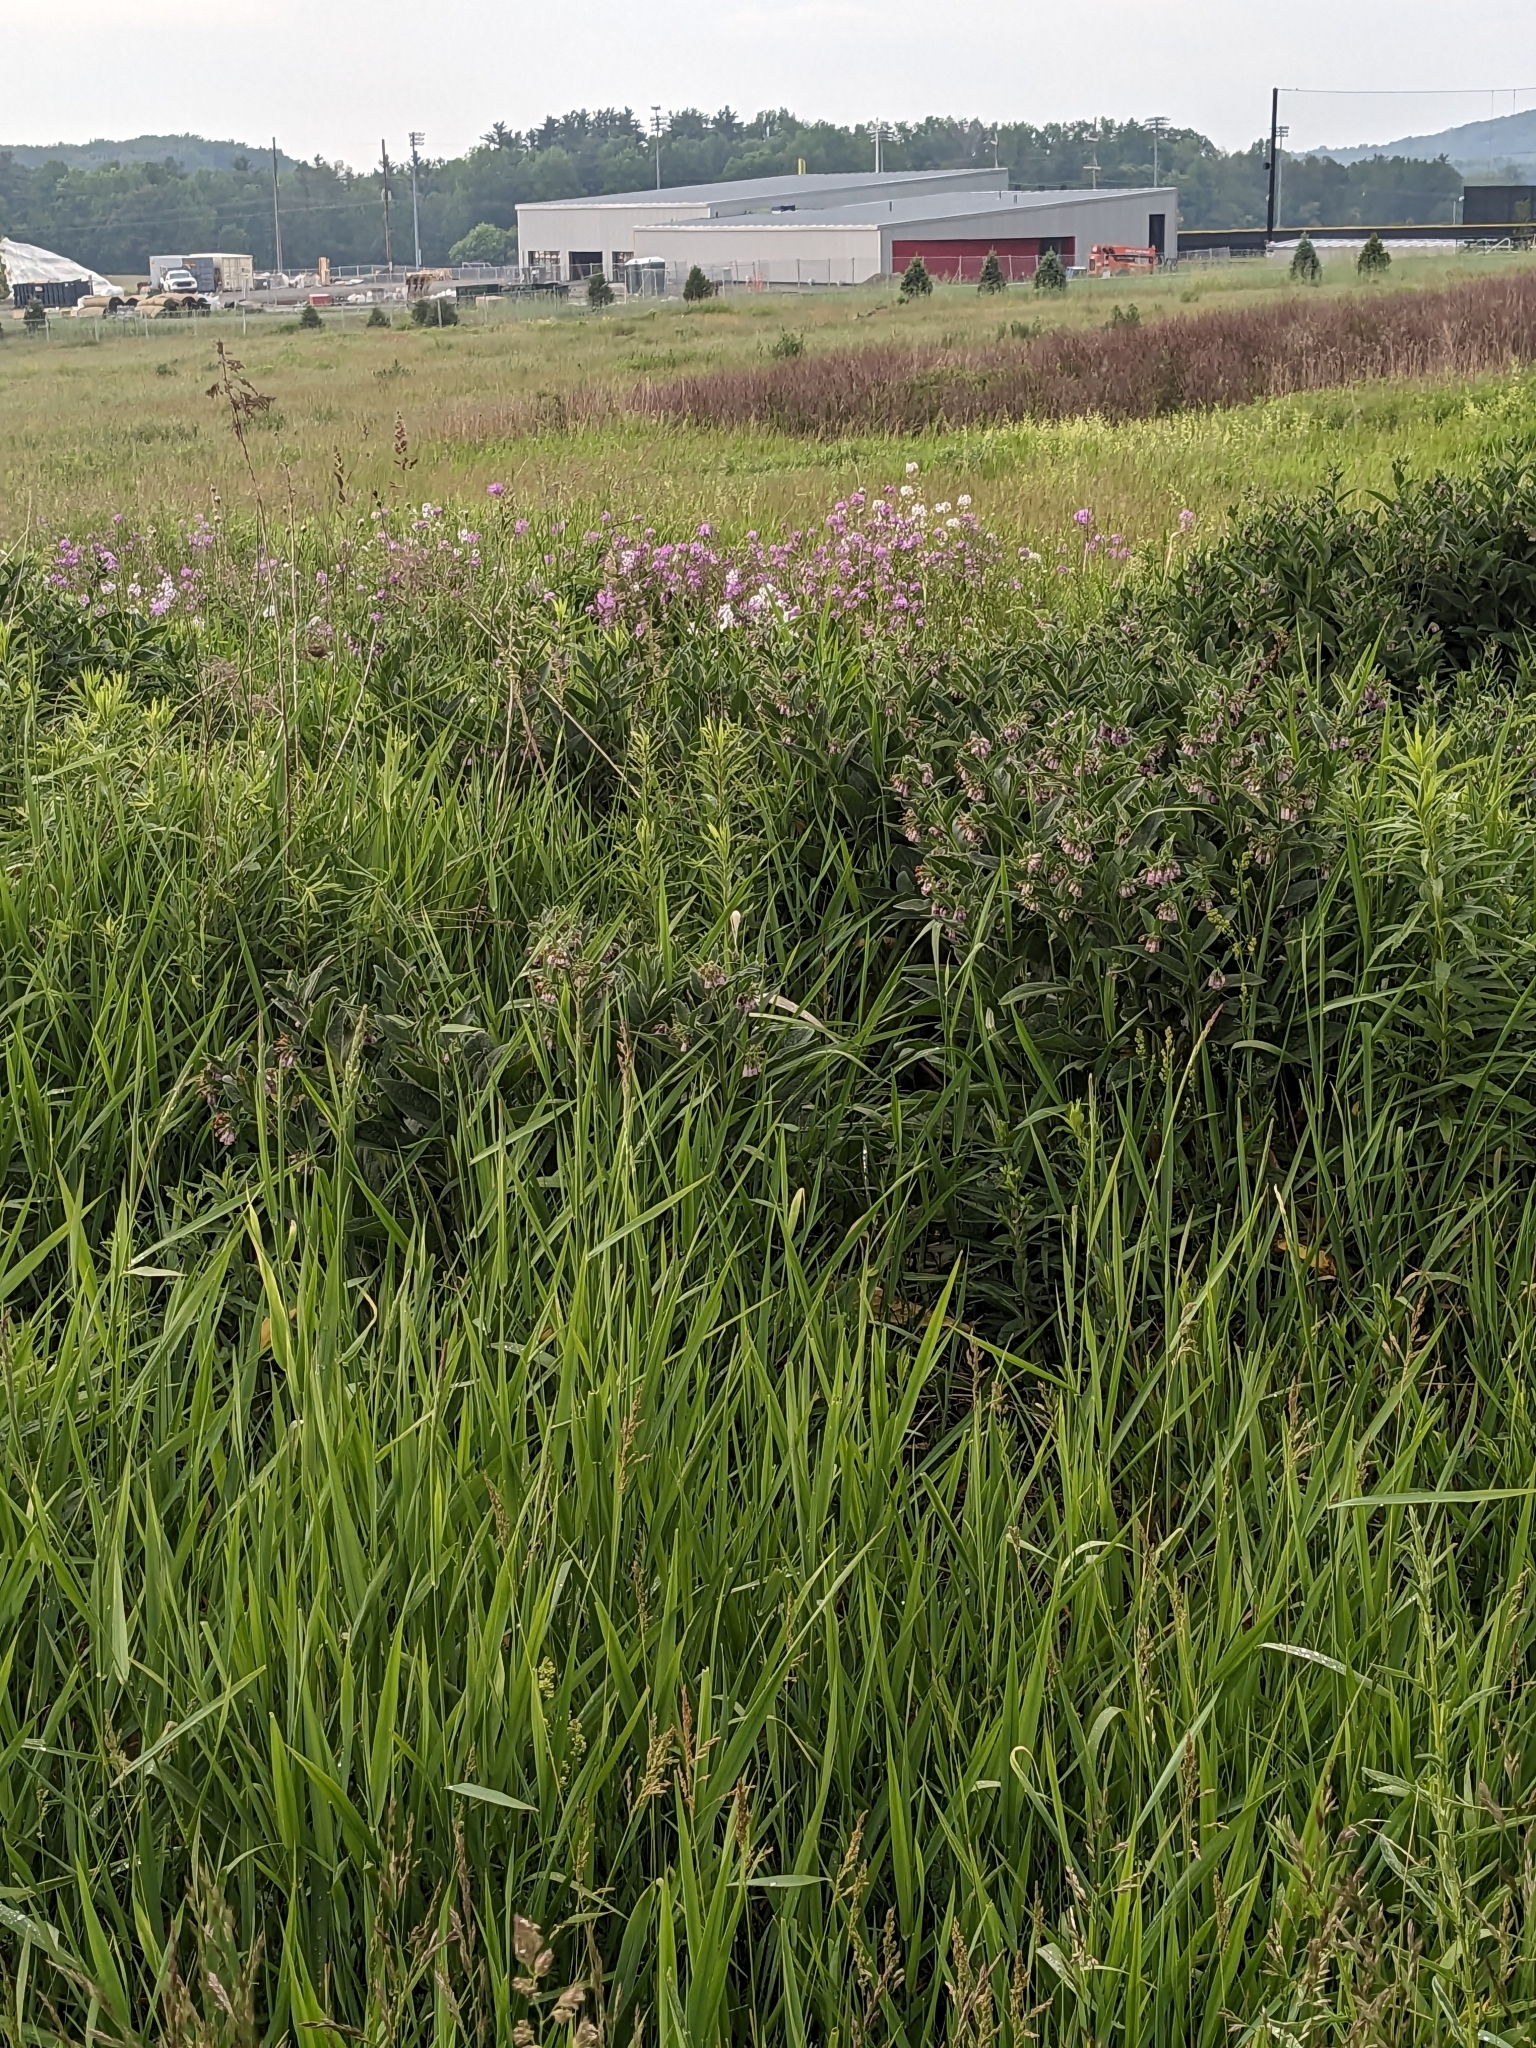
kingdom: Plantae
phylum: Tracheophyta
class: Magnoliopsida
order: Boraginales
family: Boraginaceae
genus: Symphytum
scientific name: Symphytum officinale
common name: Common comfrey
